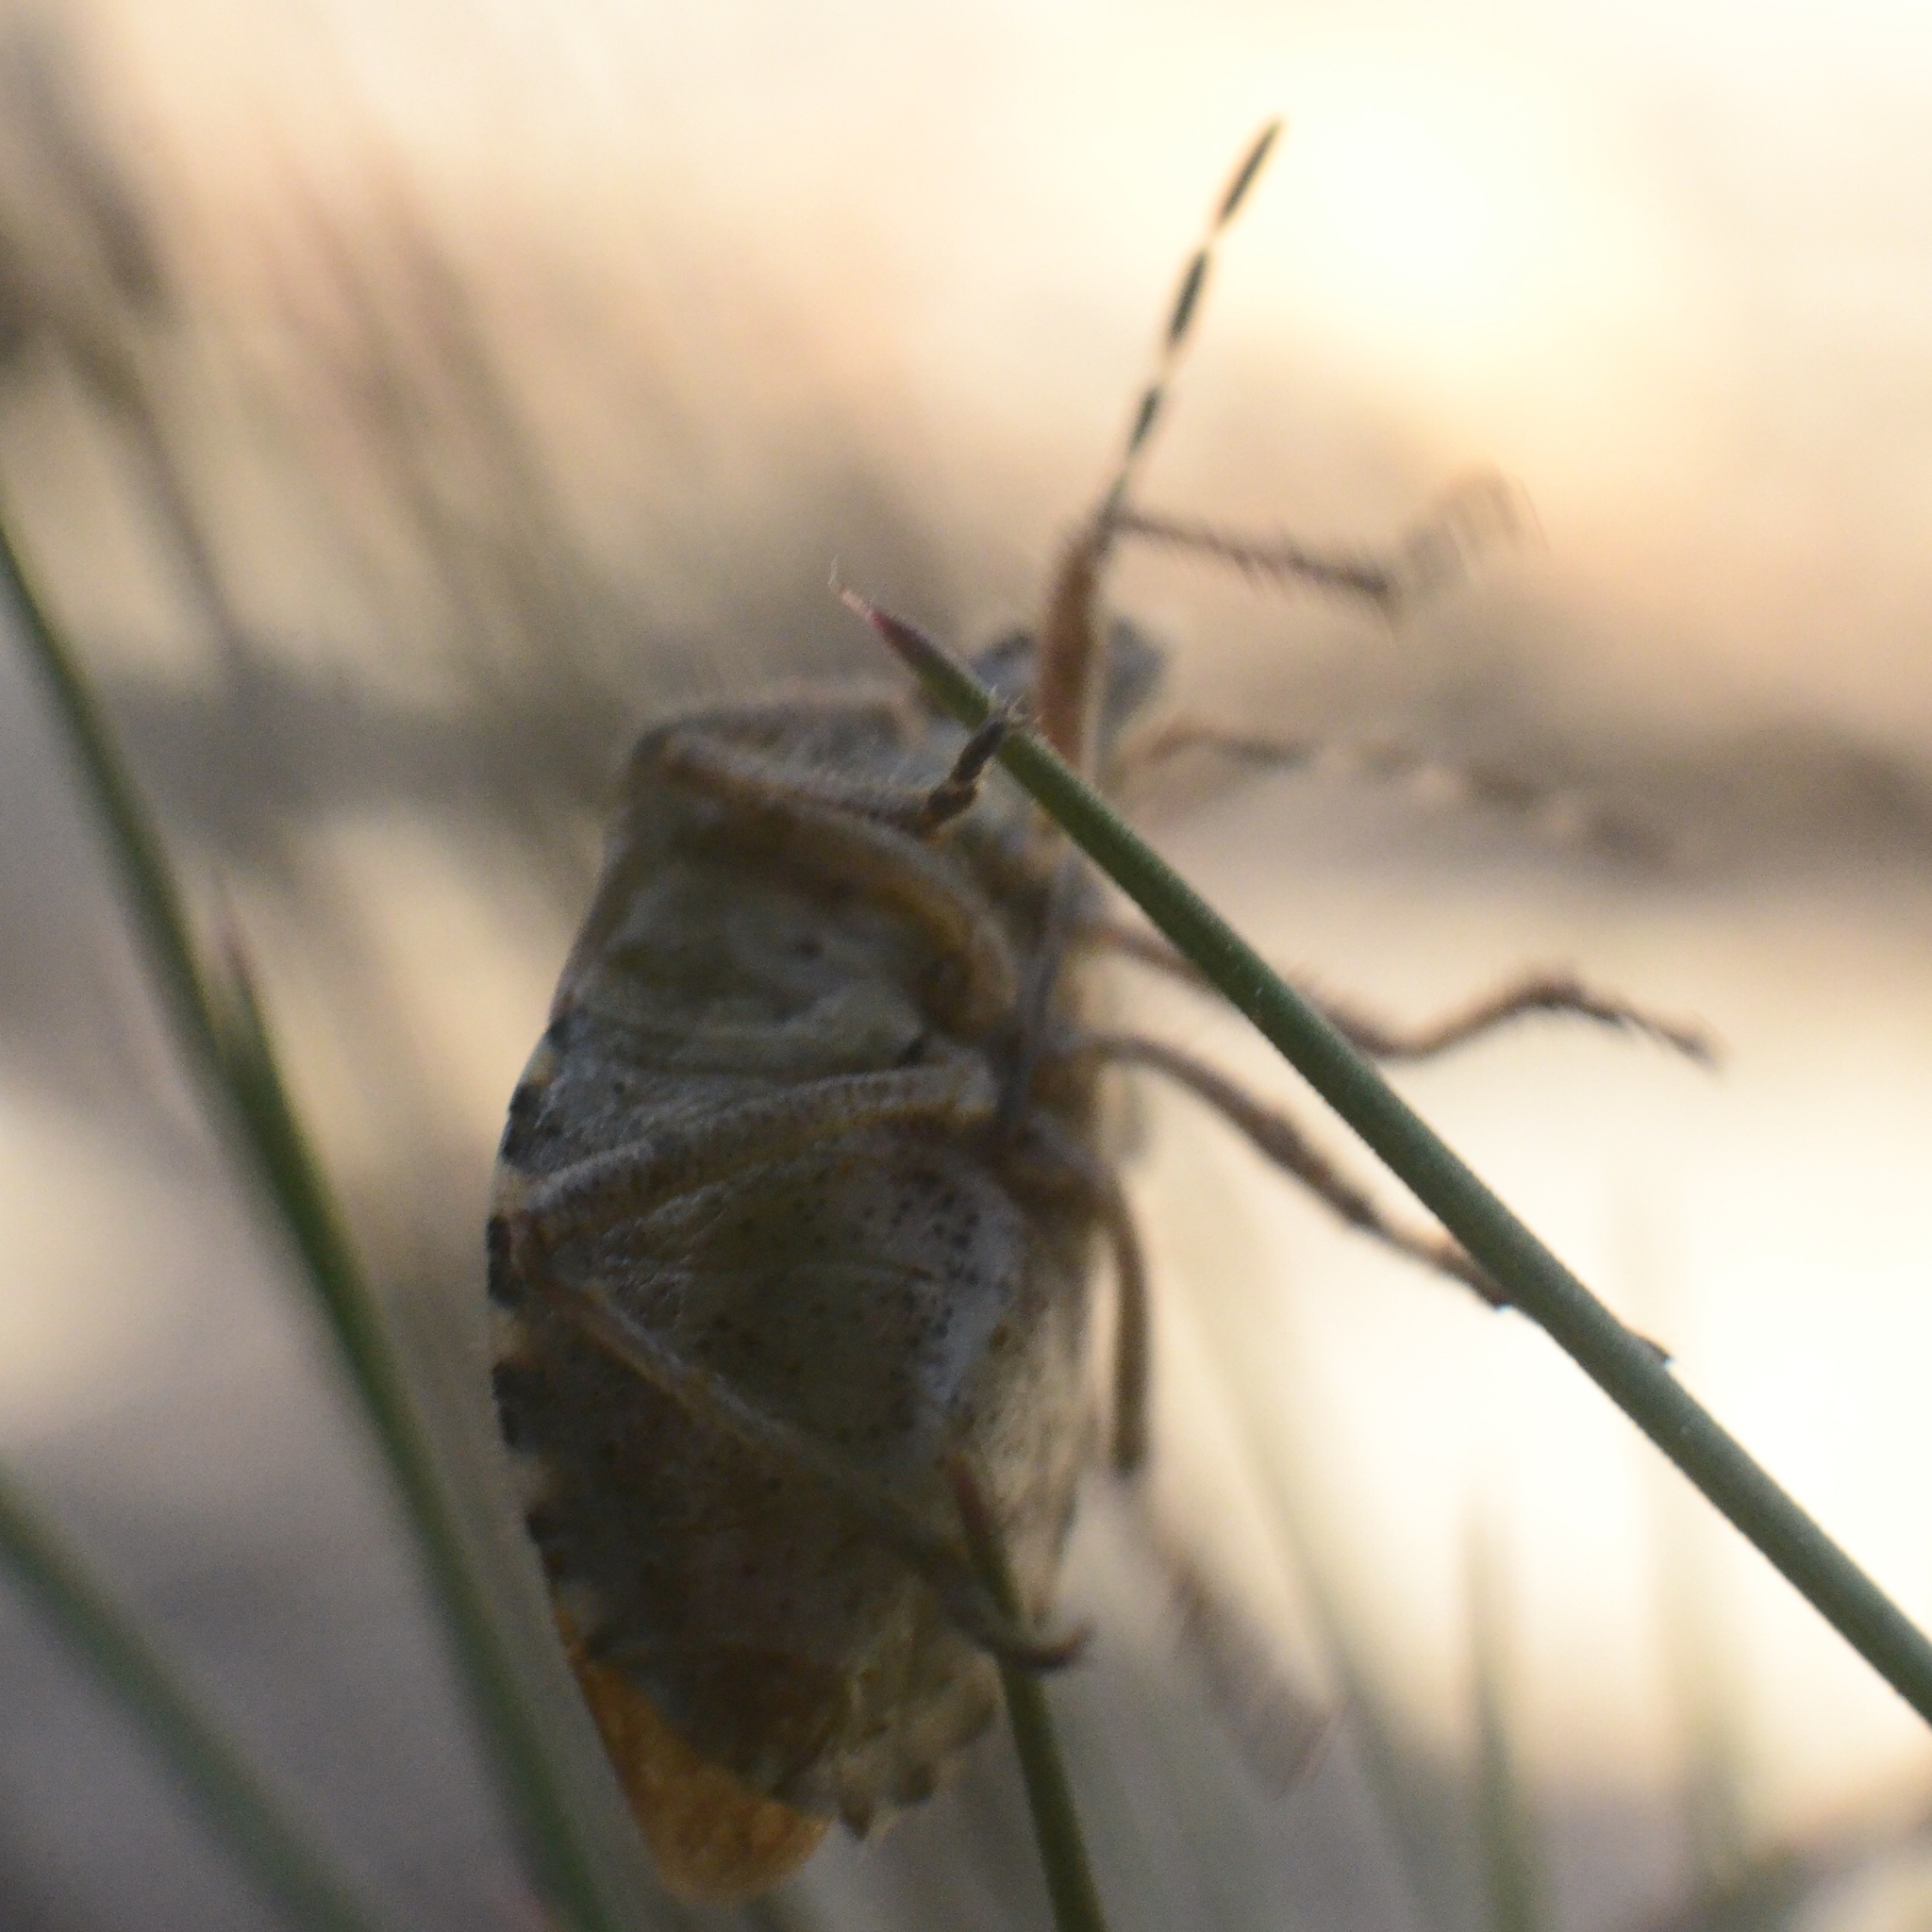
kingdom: Animalia
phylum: Arthropoda
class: Insecta
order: Hemiptera
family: Pentatomidae
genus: Dolycoris
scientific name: Dolycoris baccarum
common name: Sloe bug
